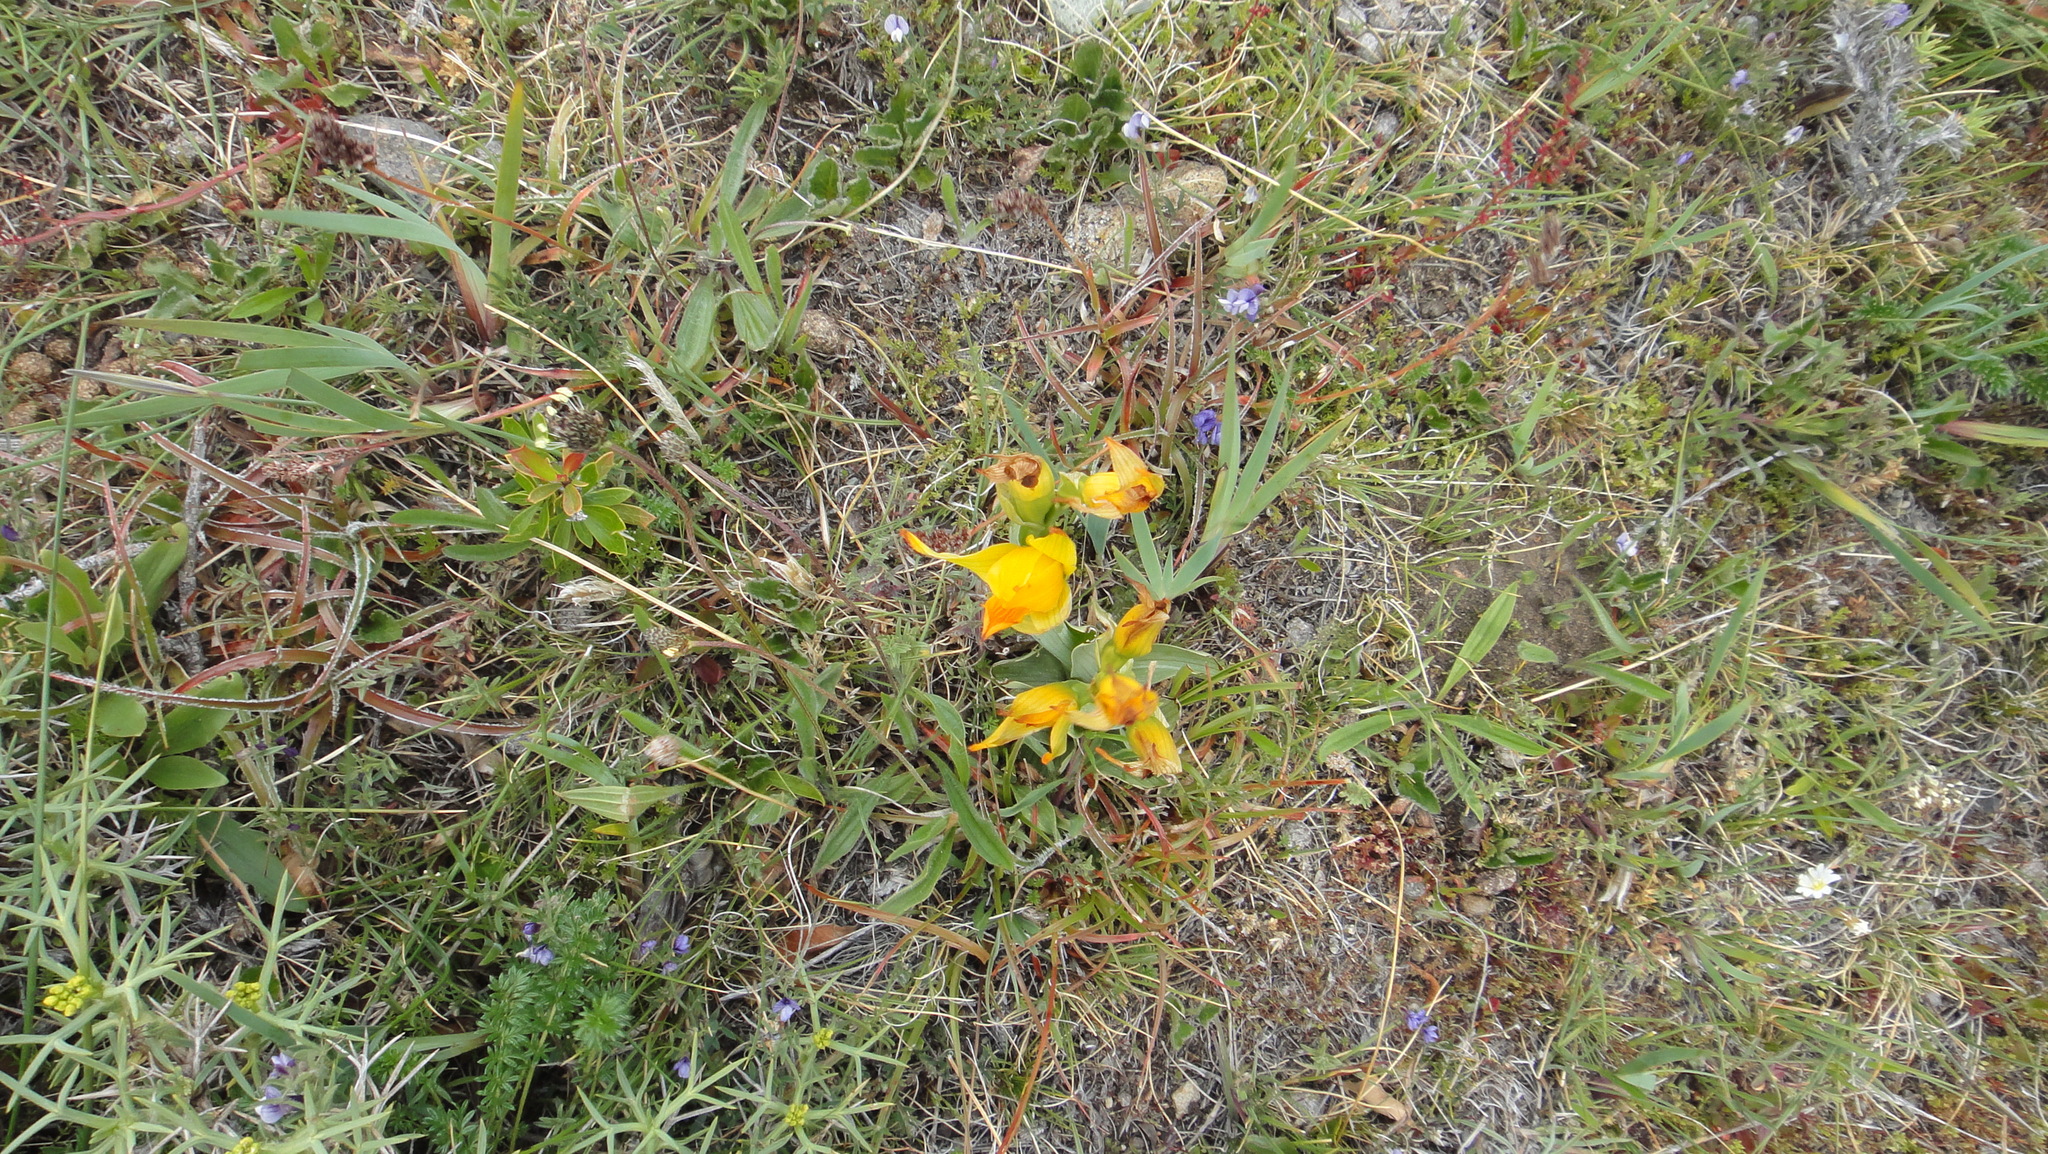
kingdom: Plantae
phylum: Tracheophyta
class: Liliopsida
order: Asparagales
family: Orchidaceae
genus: Chloraea
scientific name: Chloraea alpina
